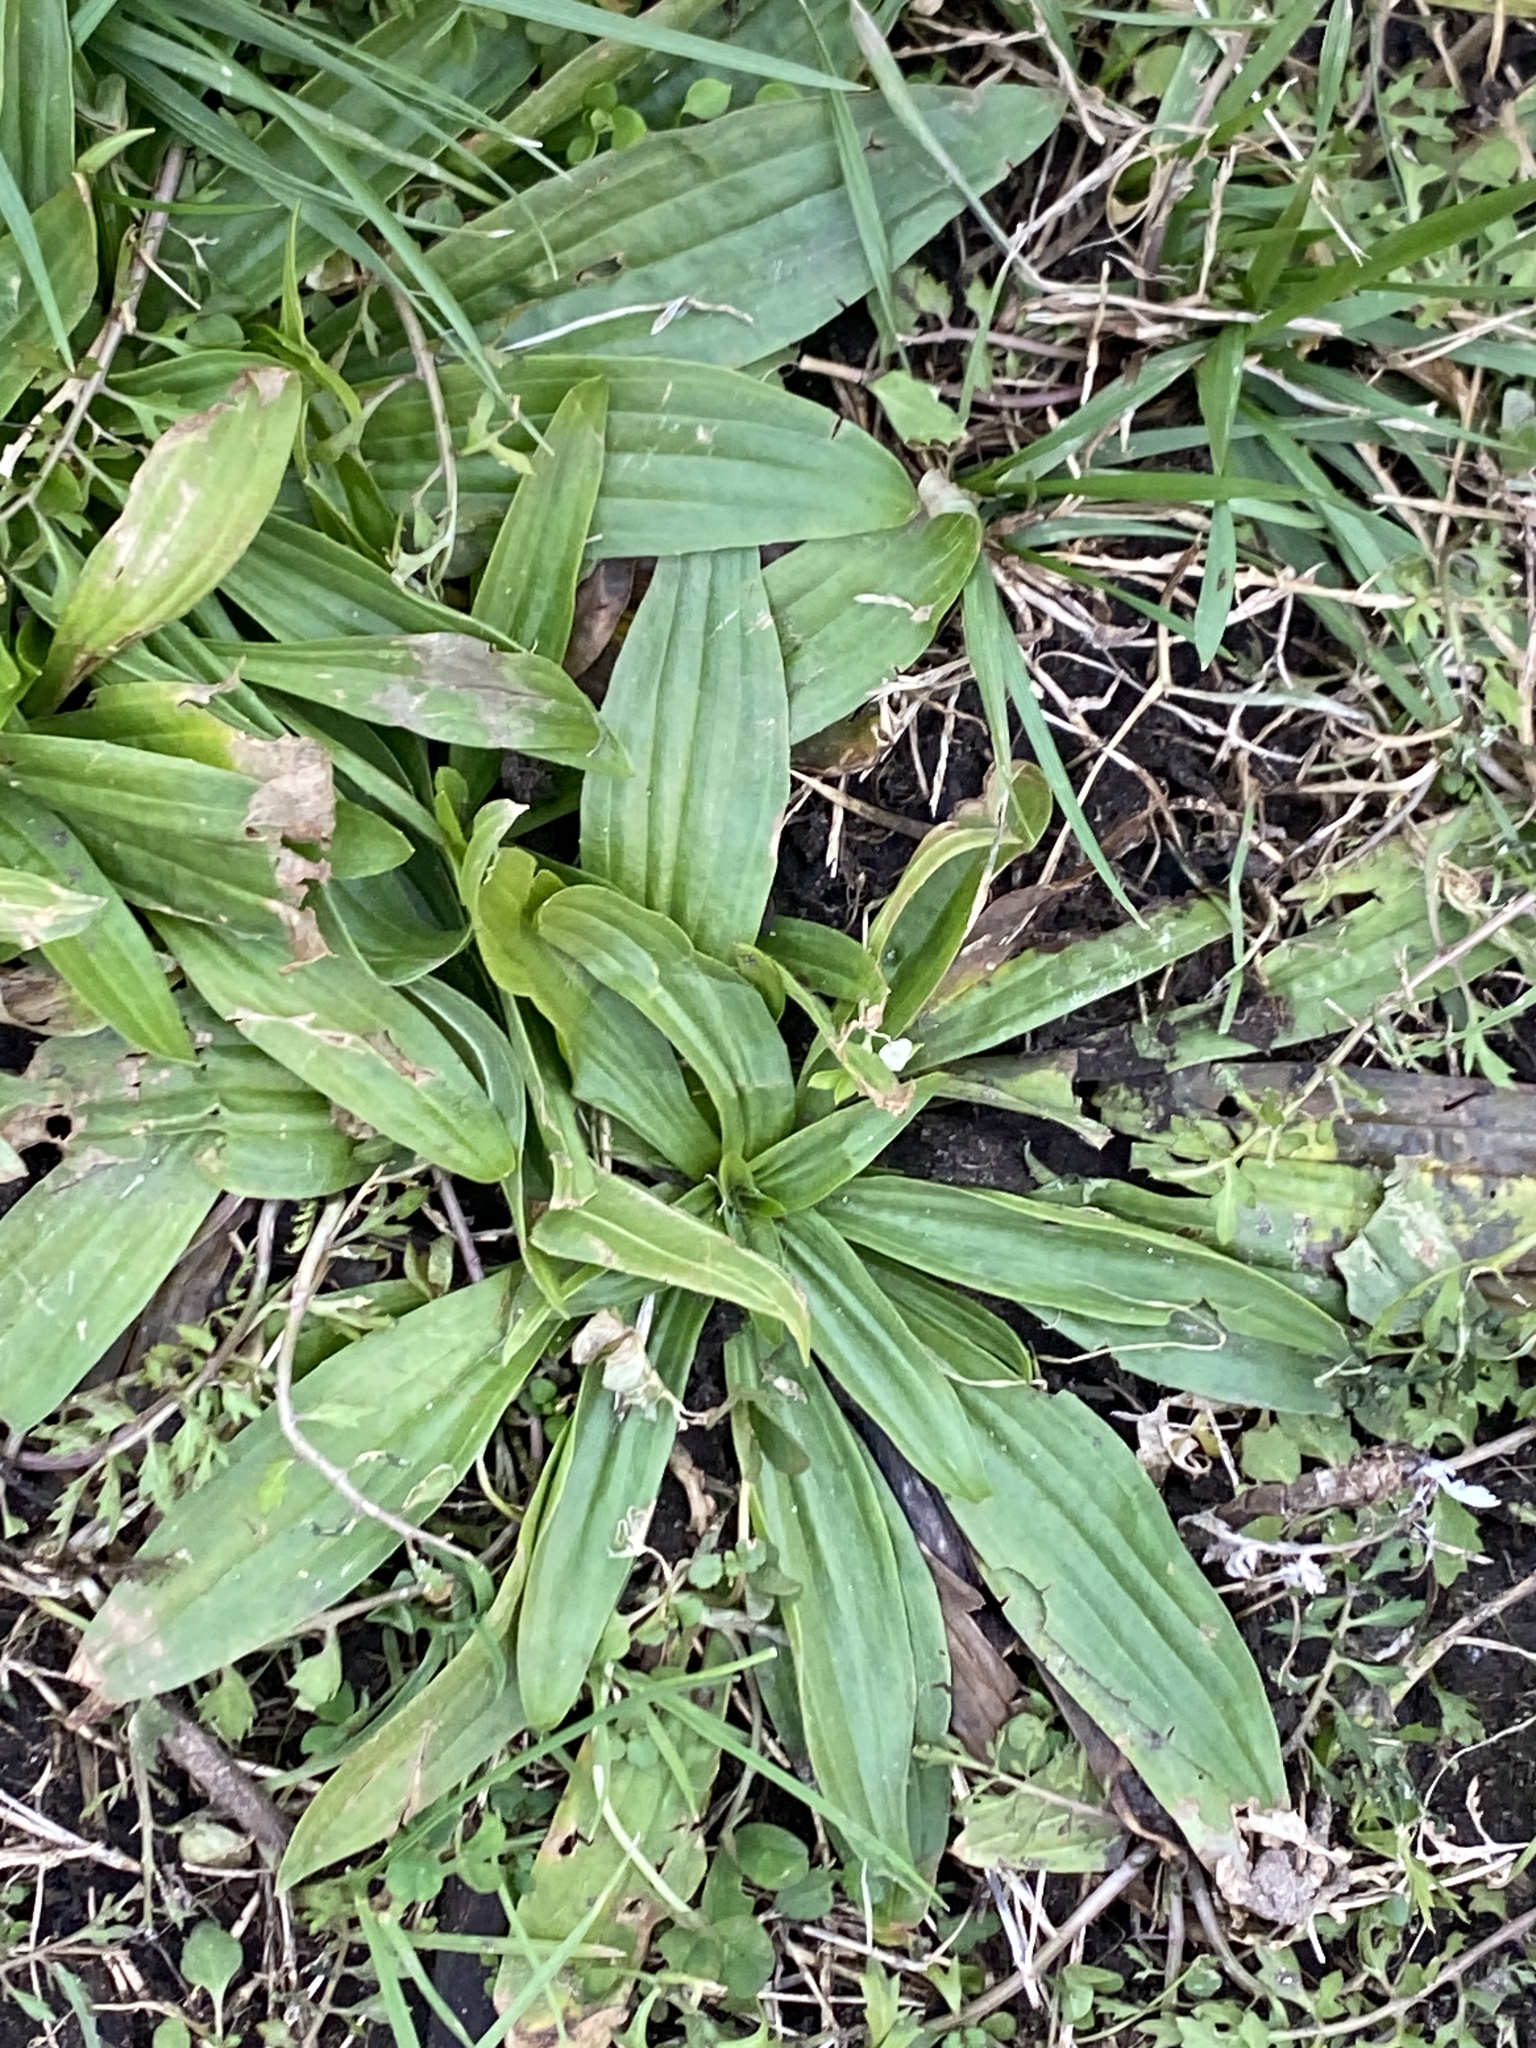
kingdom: Plantae
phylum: Tracheophyta
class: Magnoliopsida
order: Lamiales
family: Plantaginaceae
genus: Plantago
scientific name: Plantago lanceolata
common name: Ribwort plantain
